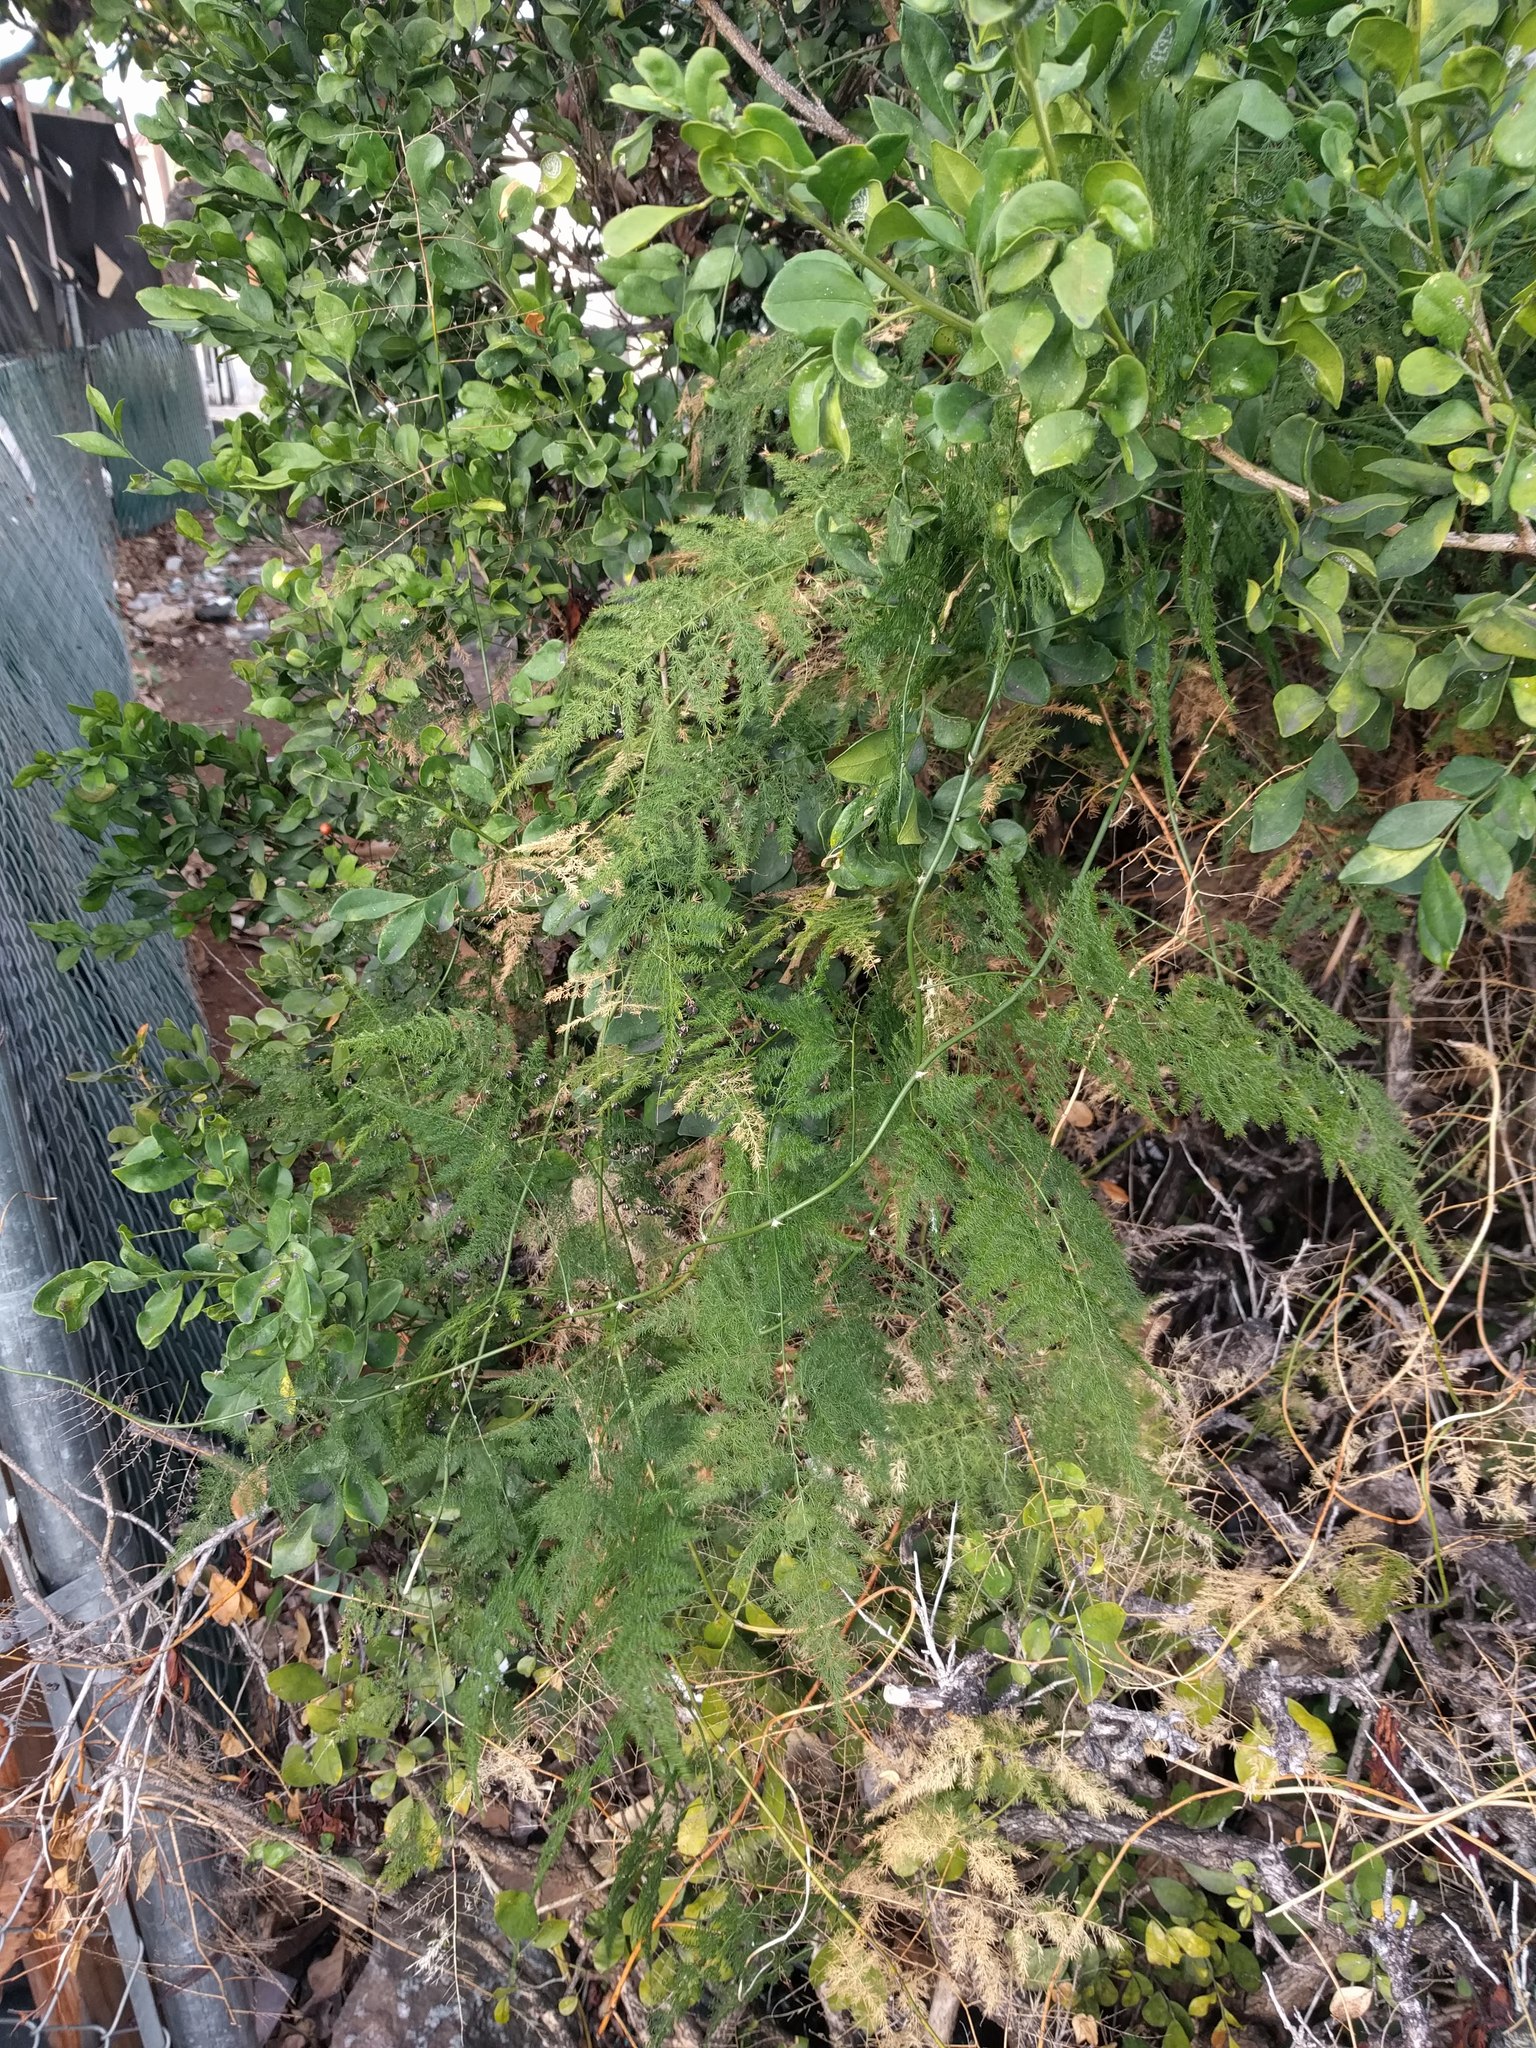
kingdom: Plantae
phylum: Tracheophyta
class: Liliopsida
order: Asparagales
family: Asparagaceae
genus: Asparagus
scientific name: Asparagus setaceus
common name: Common asparagus fern
